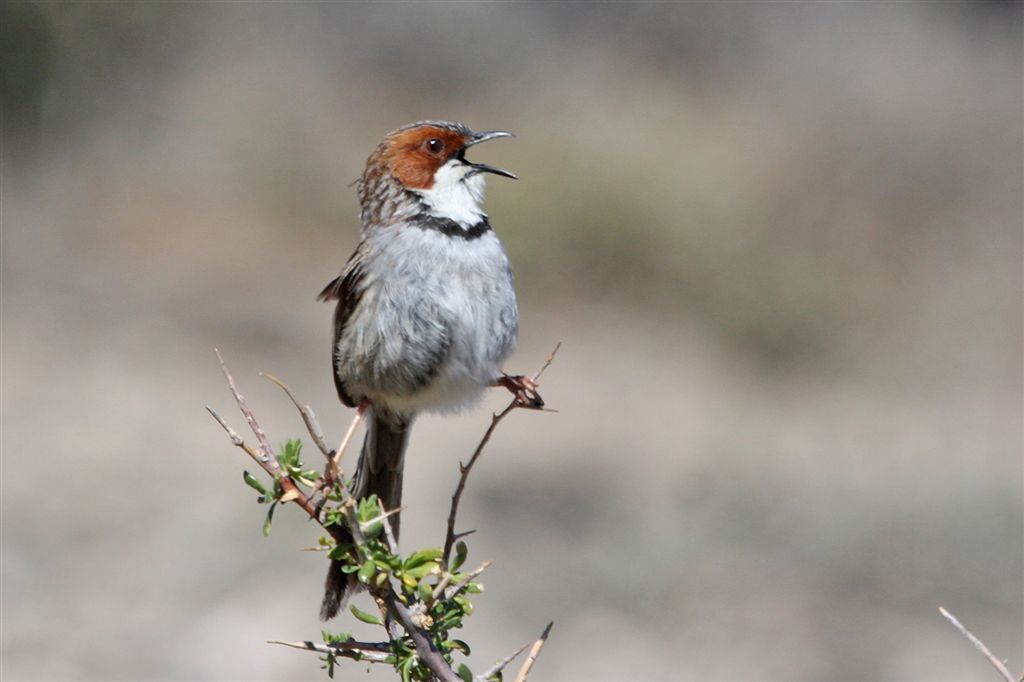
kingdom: Animalia
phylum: Chordata
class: Aves
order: Passeriformes
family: Cisticolidae
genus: Malcorus
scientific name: Malcorus pectoralis
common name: Rufous-eared warbler
